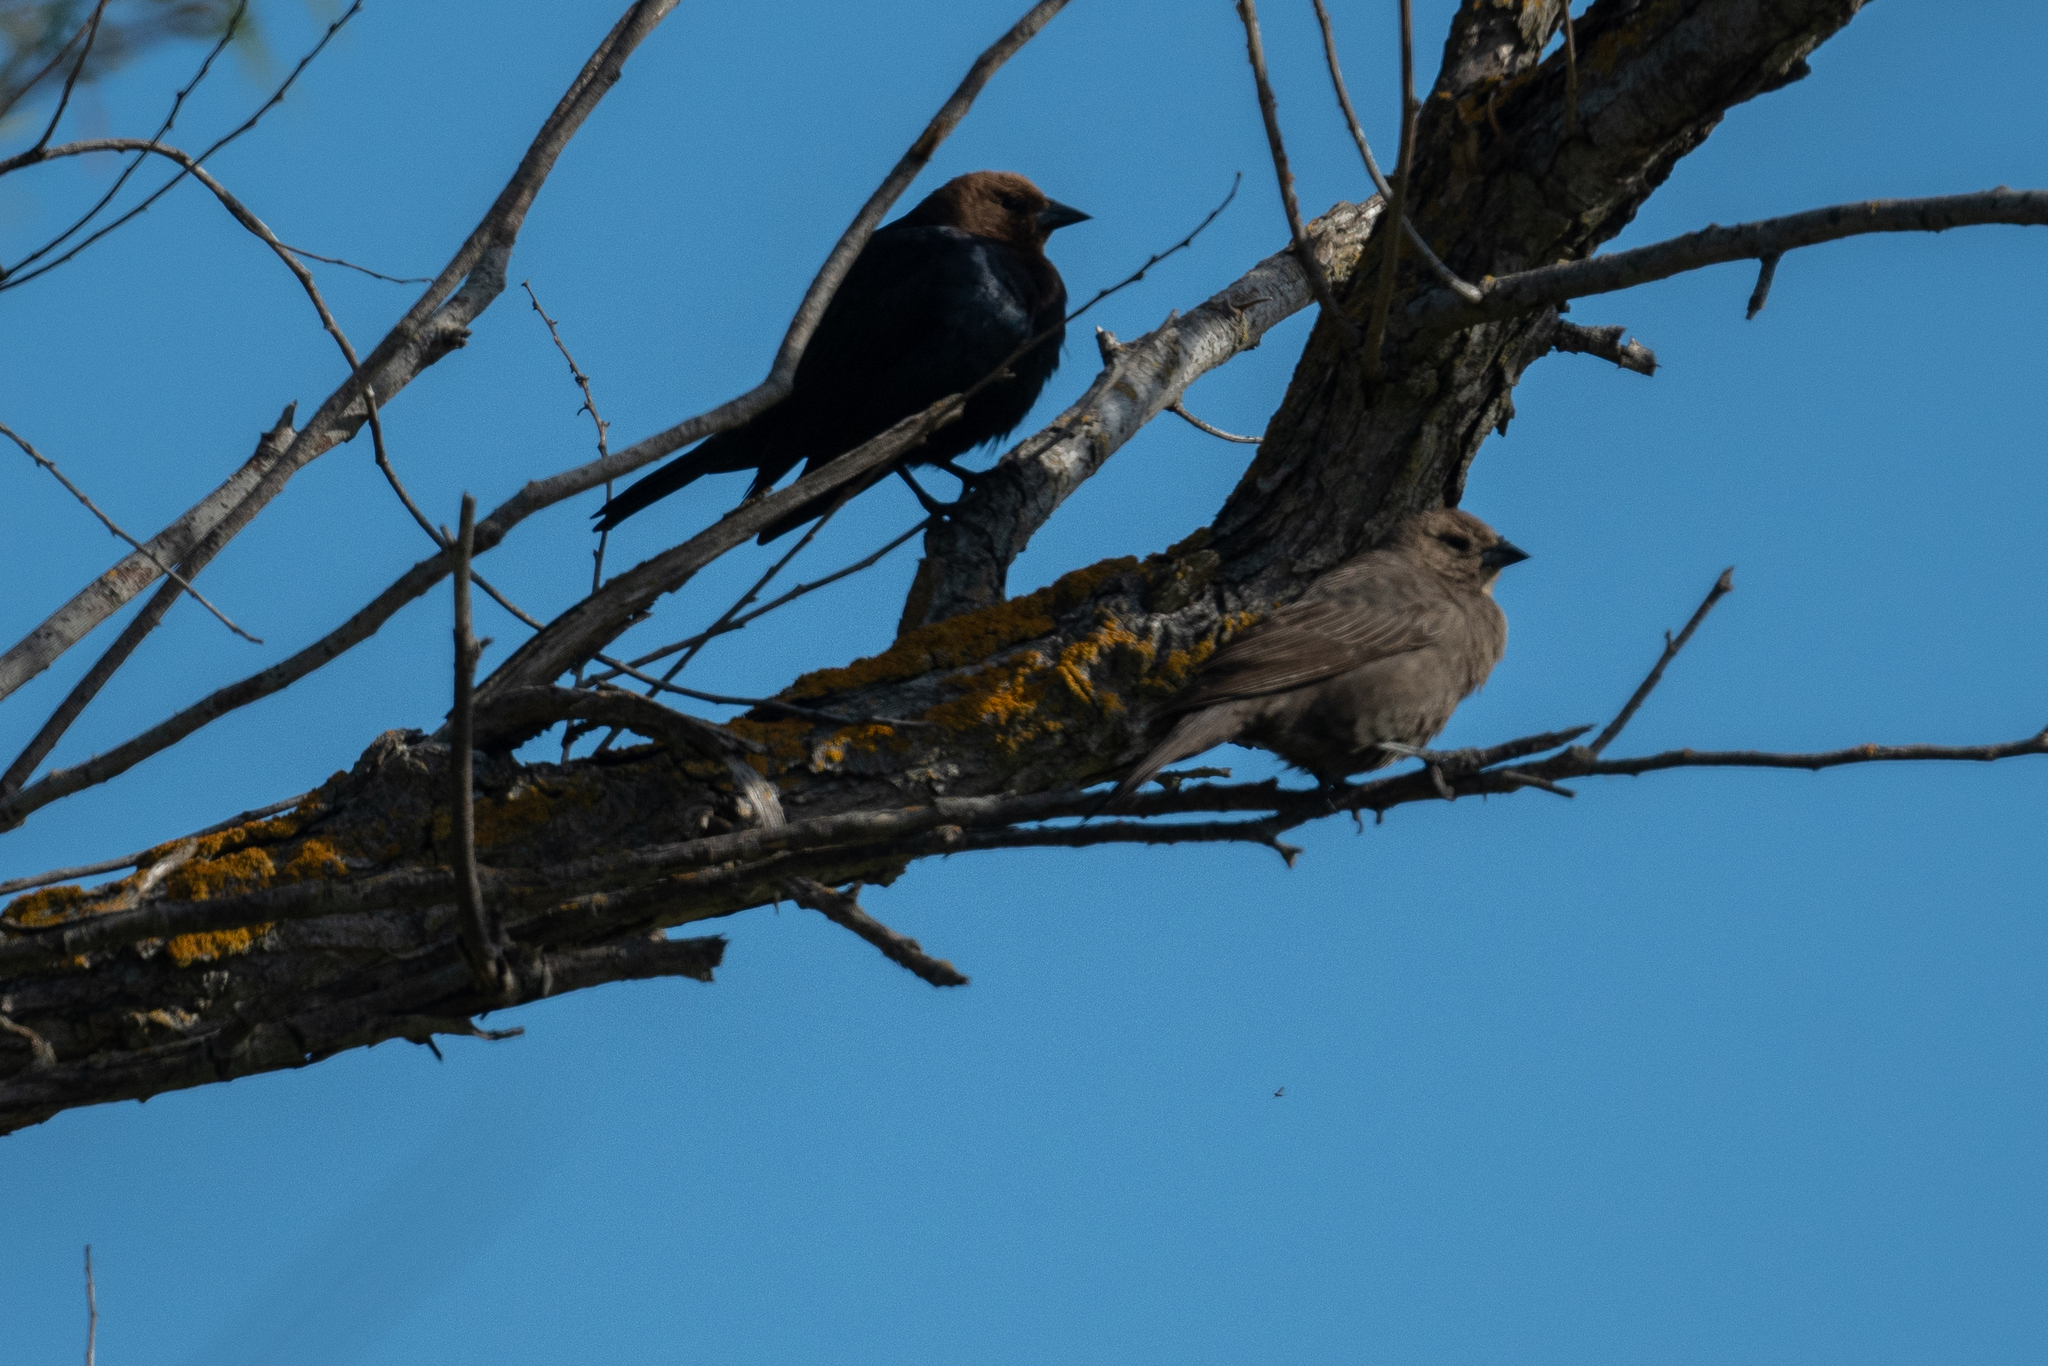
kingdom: Animalia
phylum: Chordata
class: Aves
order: Passeriformes
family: Icteridae
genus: Molothrus
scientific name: Molothrus ater
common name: Brown-headed cowbird
